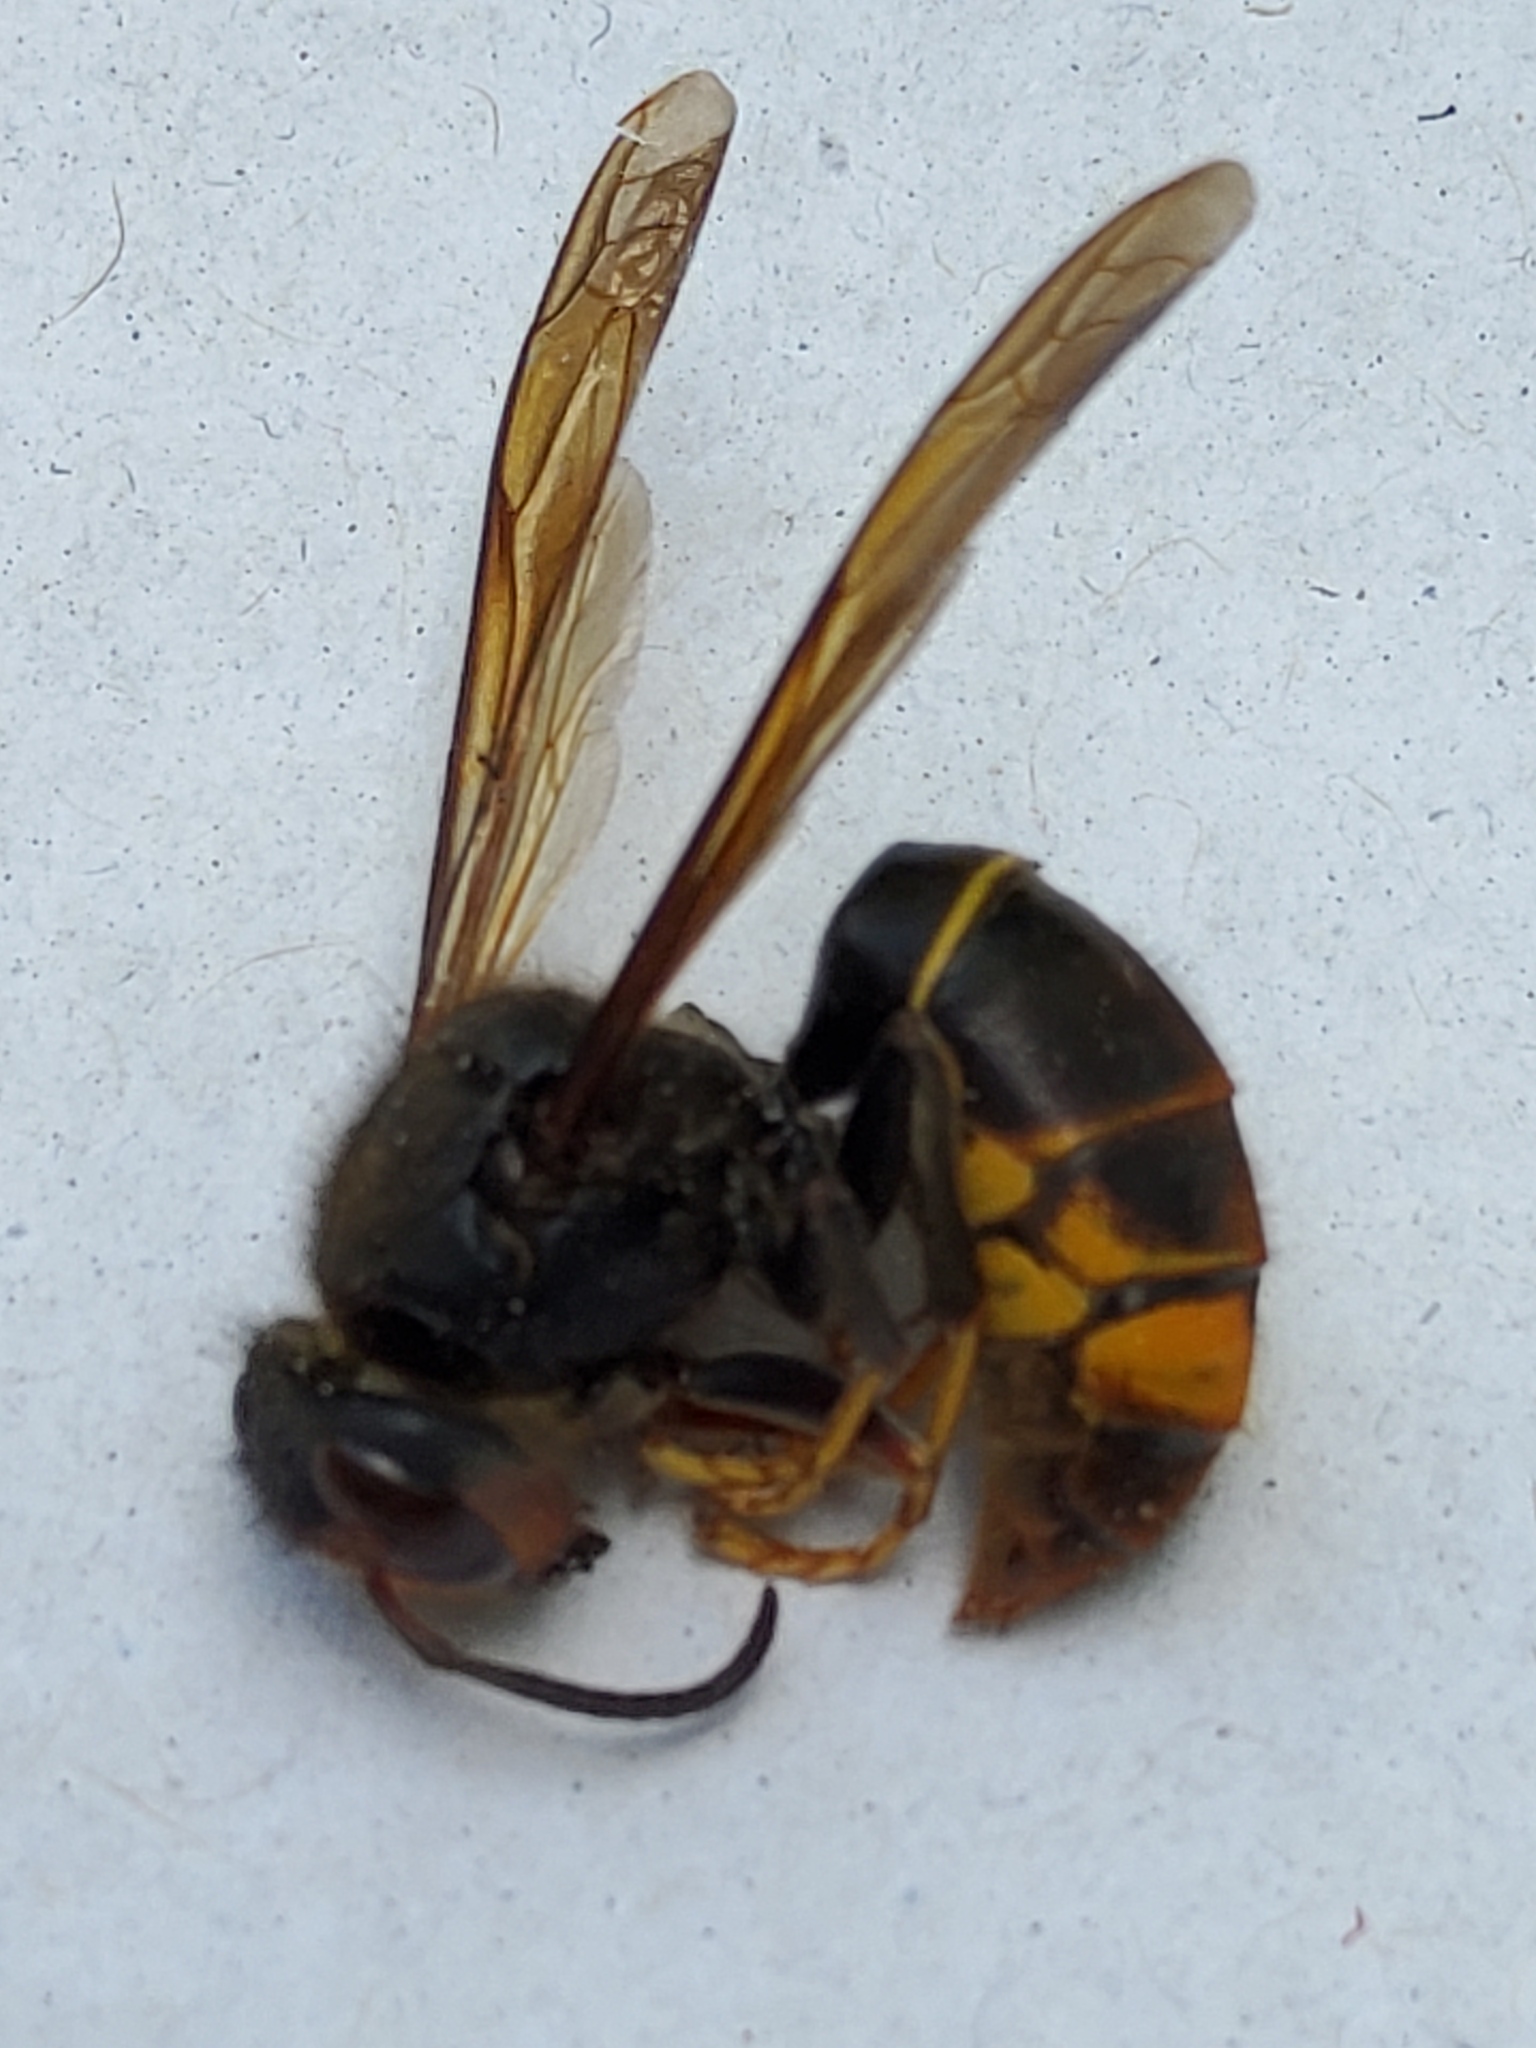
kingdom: Animalia
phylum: Arthropoda
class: Insecta
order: Hymenoptera
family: Vespidae
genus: Vespa
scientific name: Vespa velutina
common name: Asian hornet
